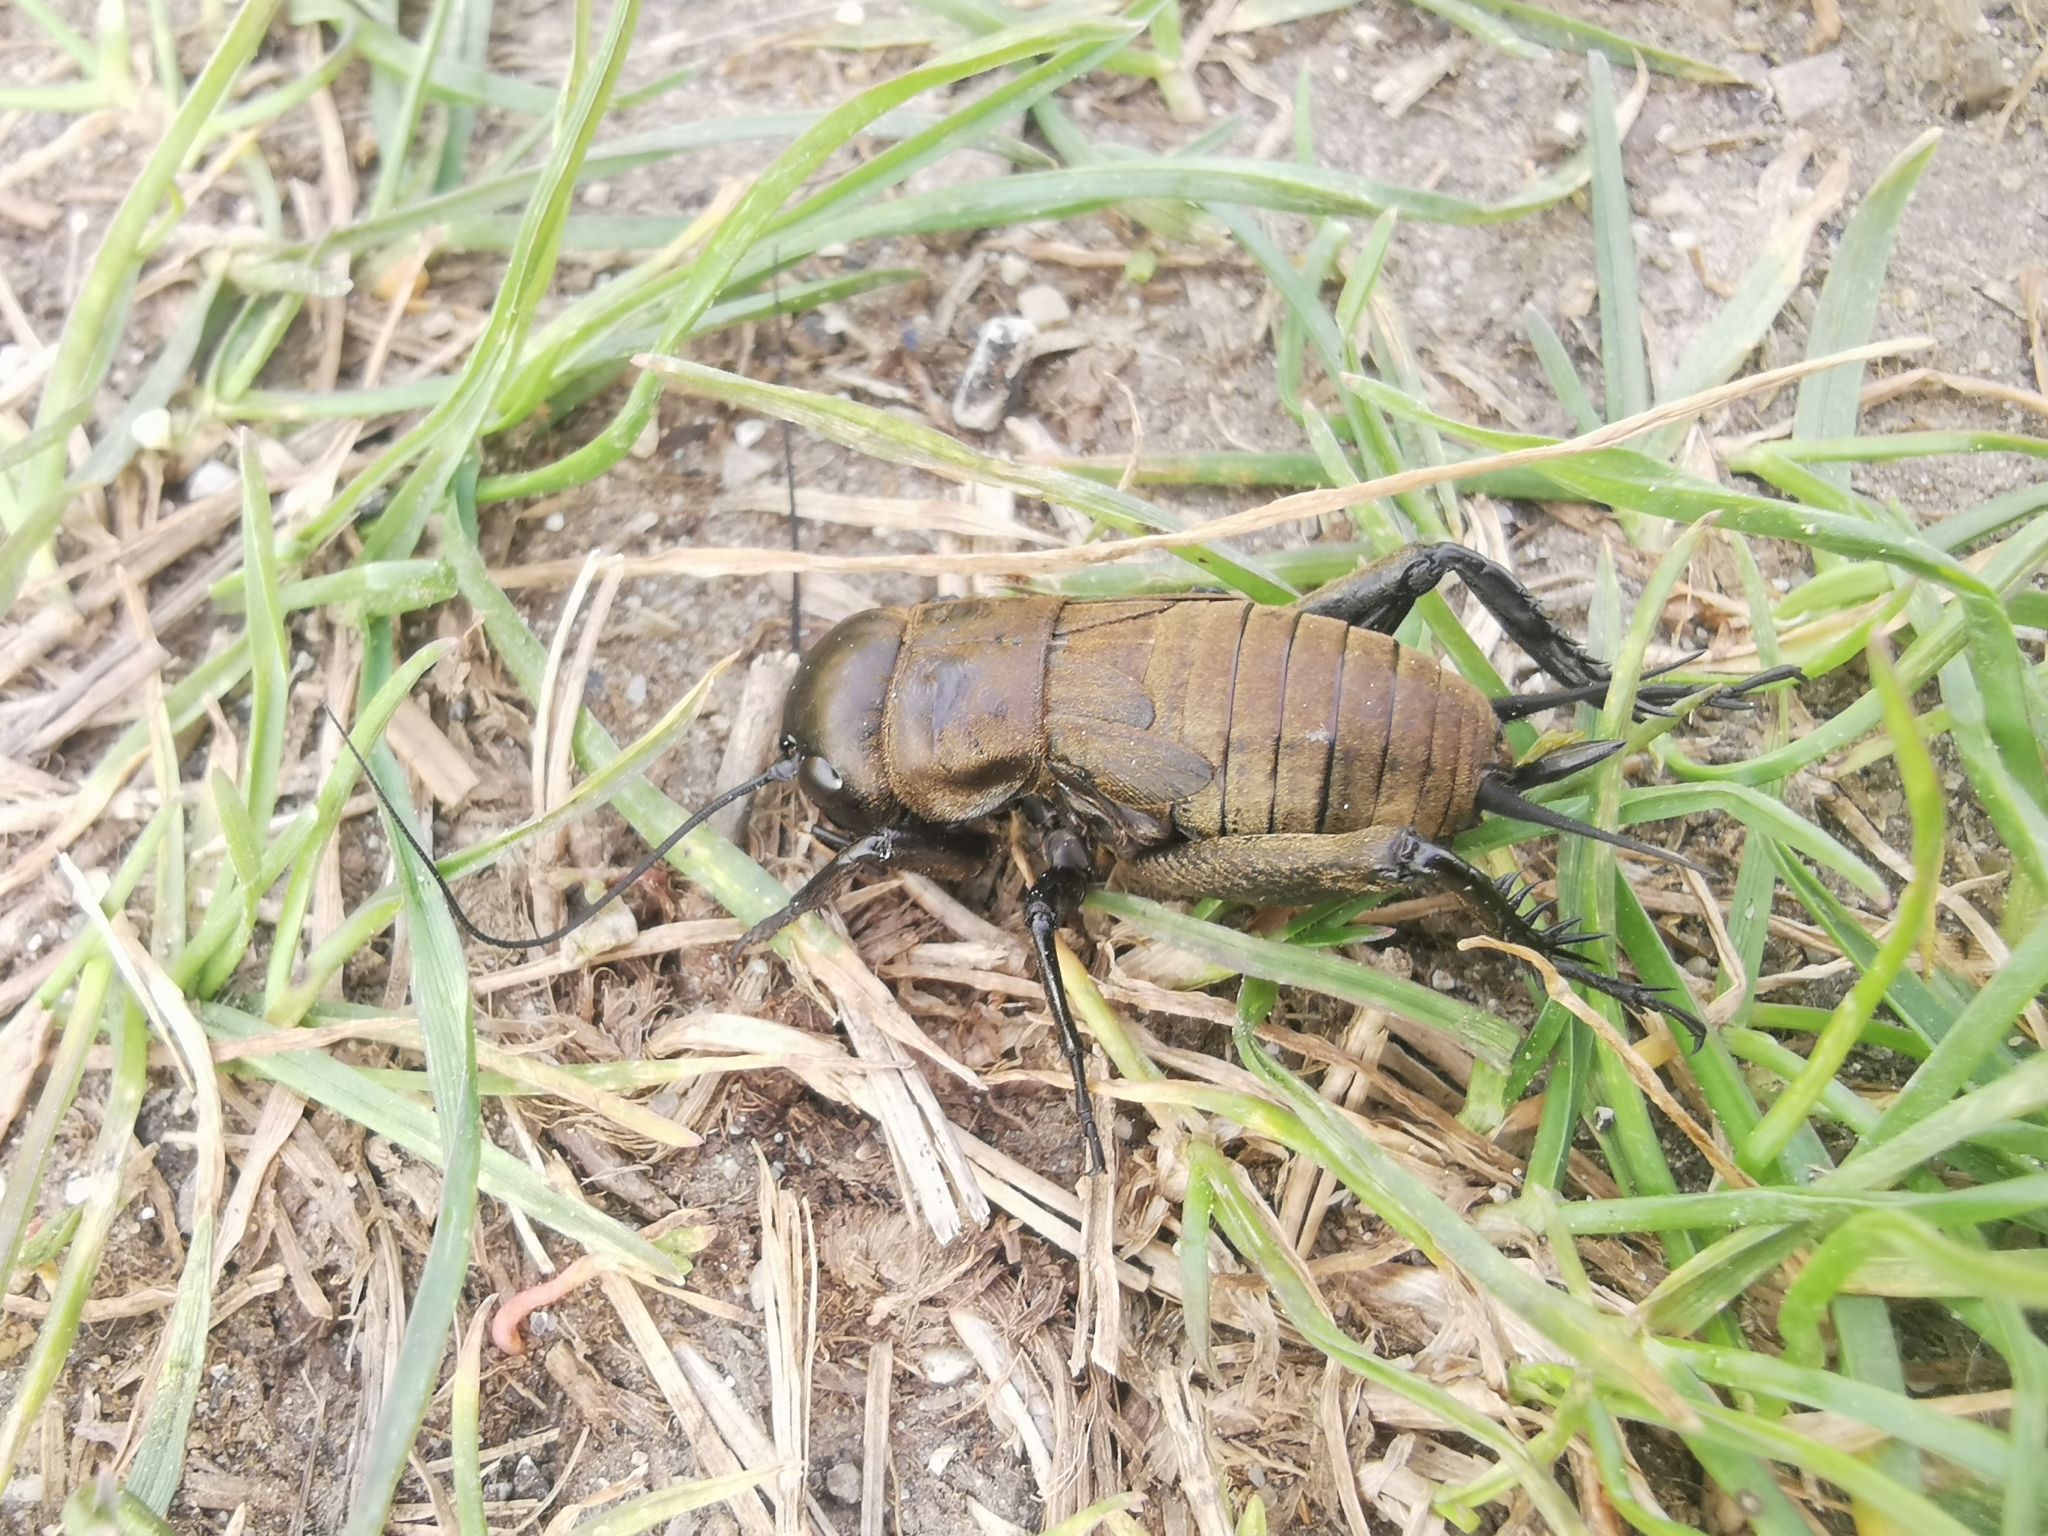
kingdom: Animalia
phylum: Arthropoda
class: Insecta
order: Orthoptera
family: Gryllidae
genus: Gryllus
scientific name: Gryllus campestris
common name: Field cricket
